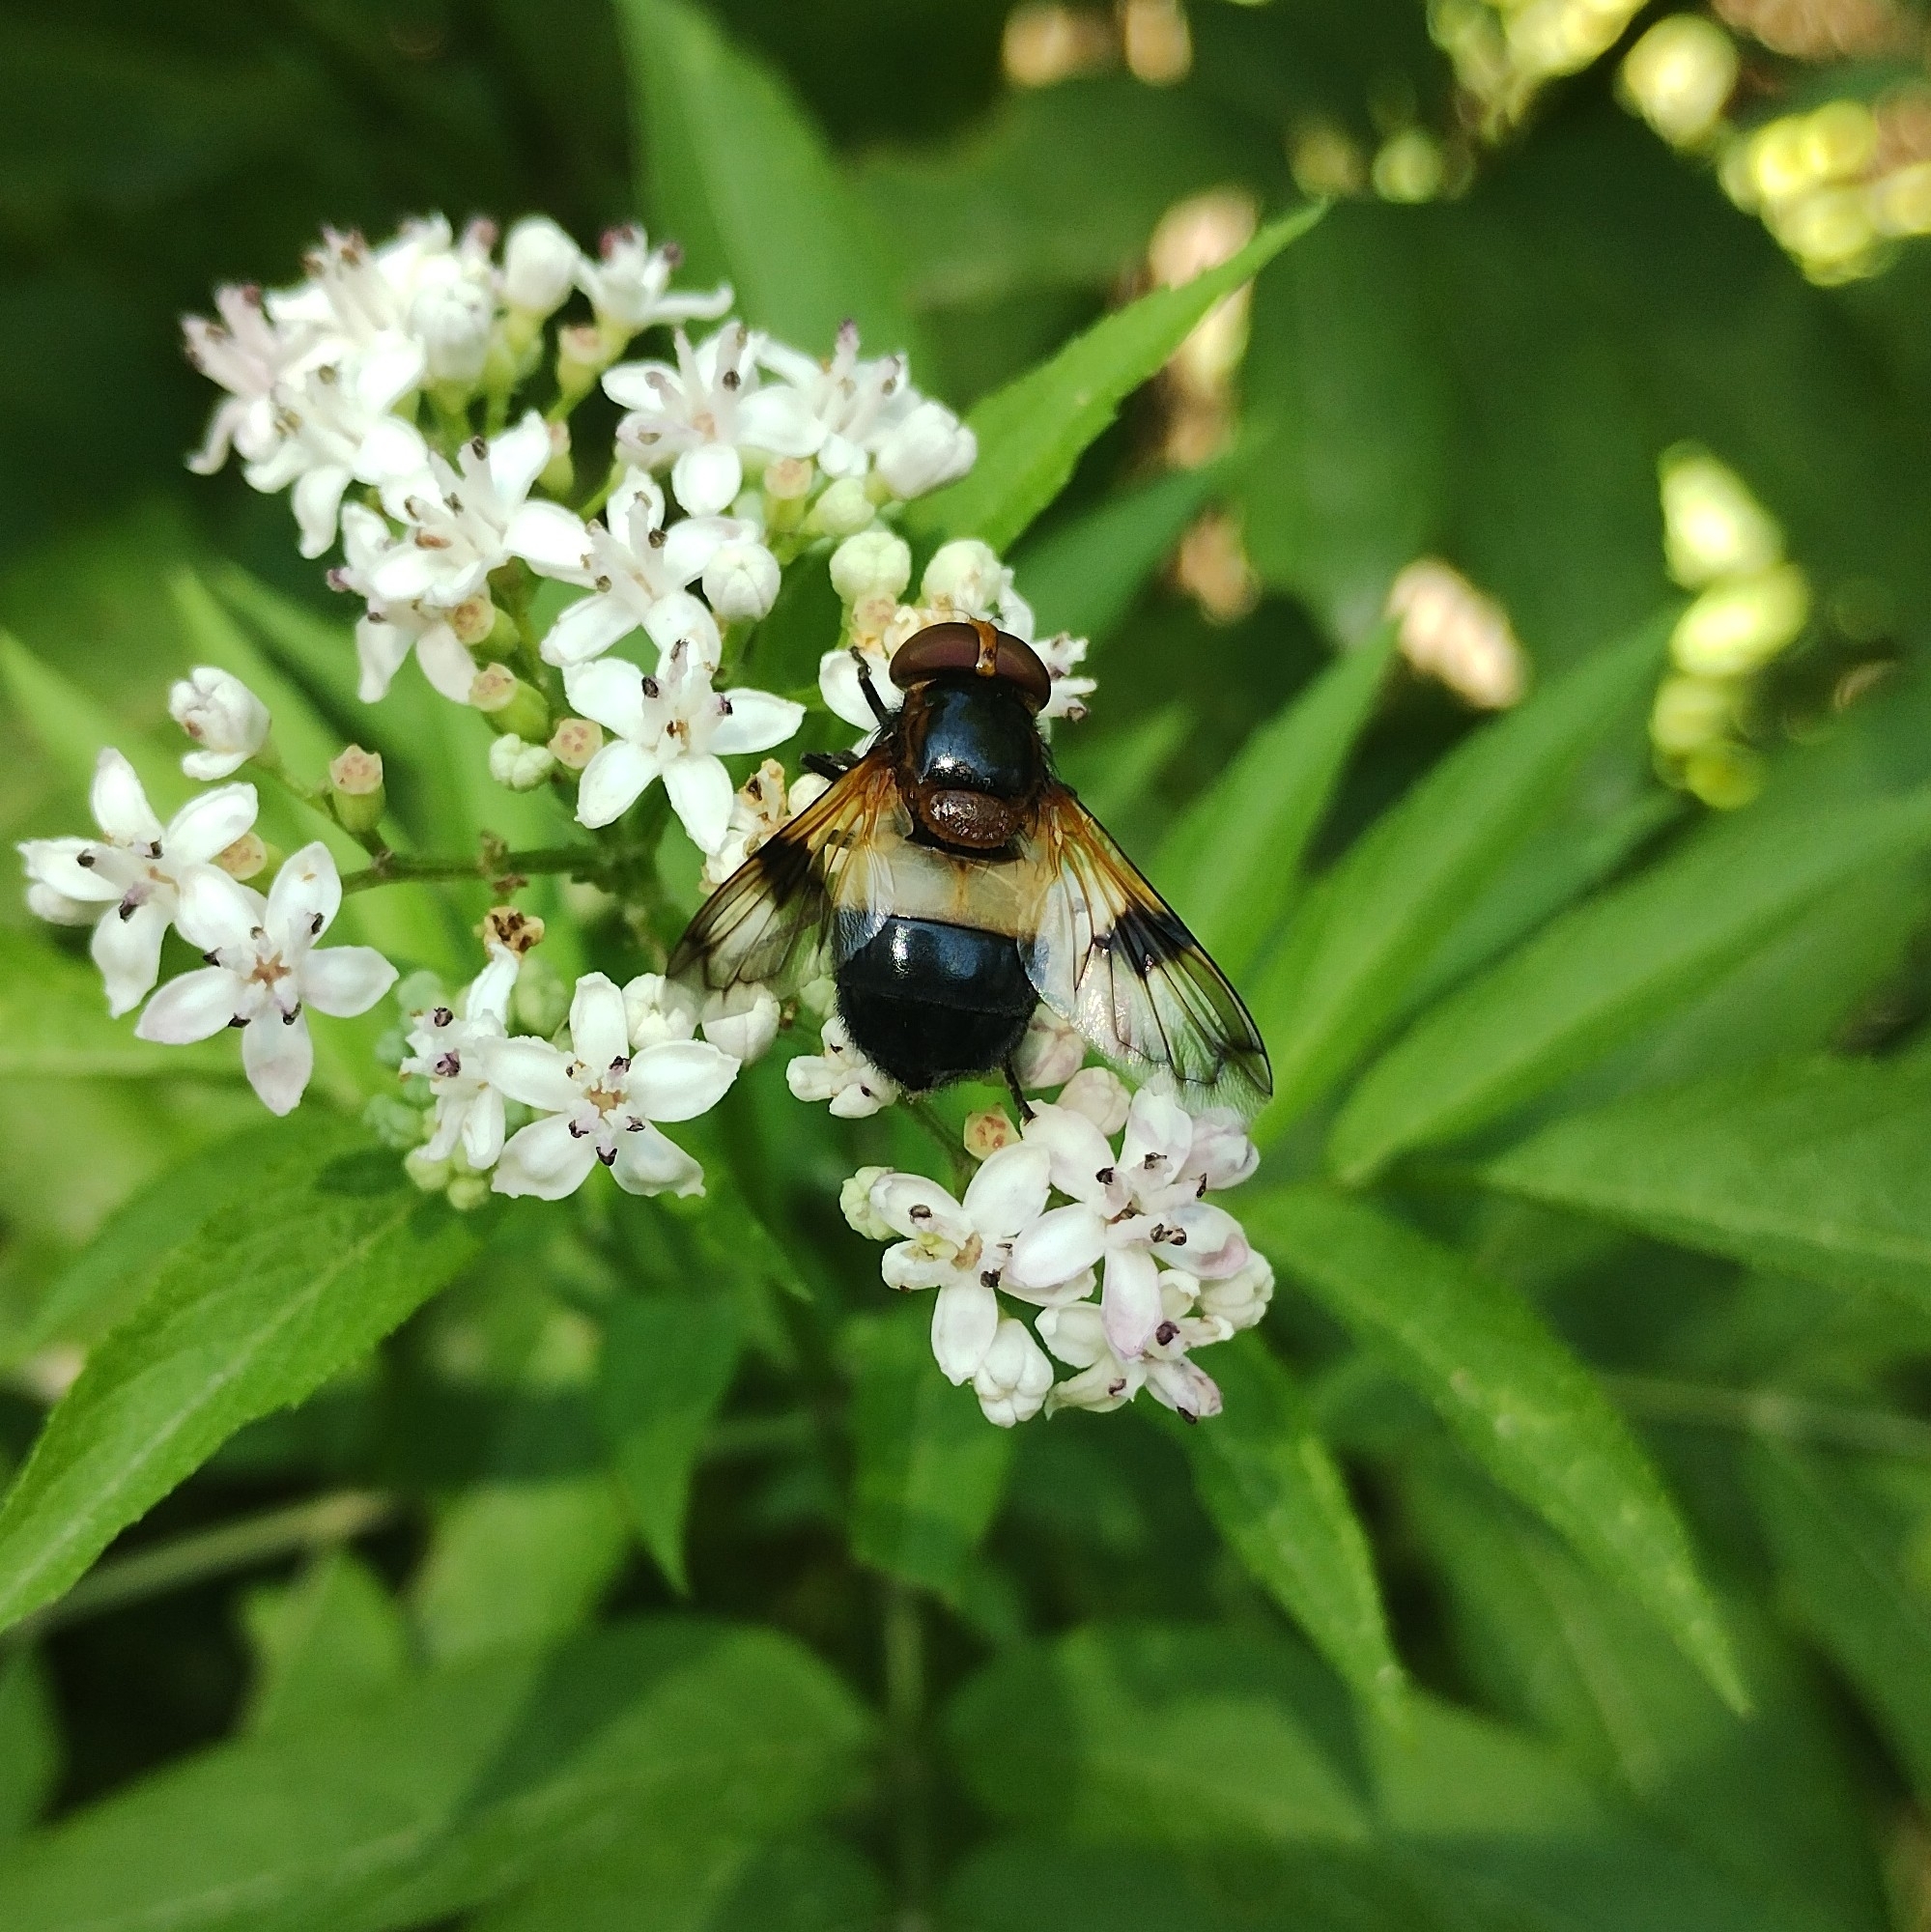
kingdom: Animalia
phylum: Arthropoda
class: Insecta
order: Diptera
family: Syrphidae
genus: Volucella
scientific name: Volucella pellucens
